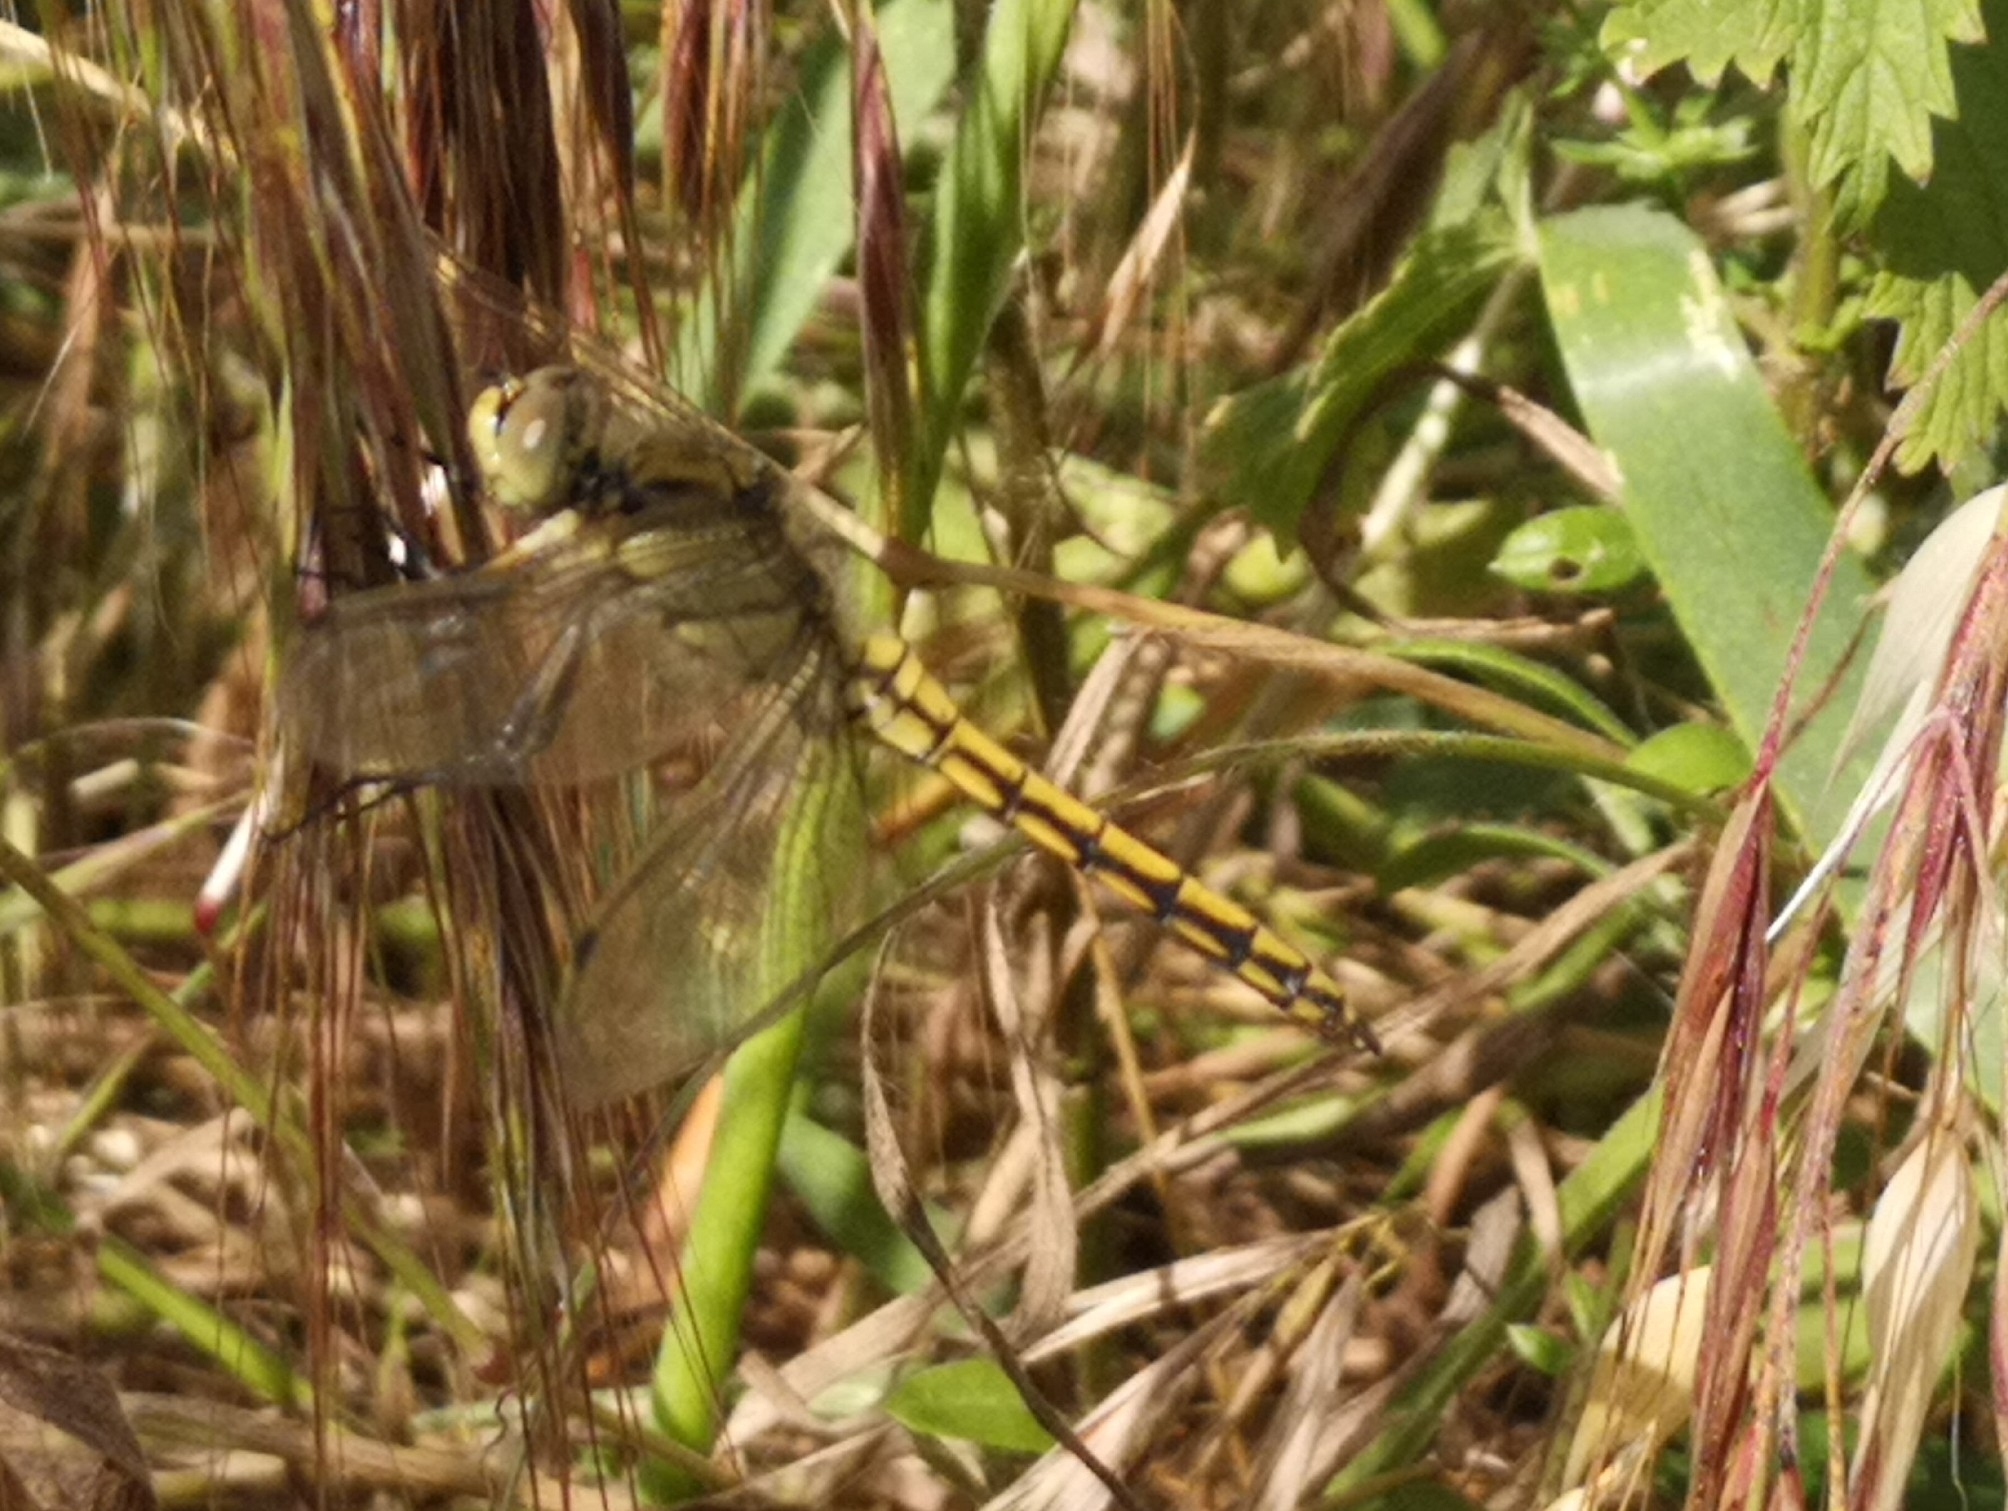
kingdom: Animalia
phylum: Arthropoda
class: Insecta
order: Odonata
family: Libellulidae
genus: Orthetrum
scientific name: Orthetrum cancellatum
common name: Black-tailed skimmer
